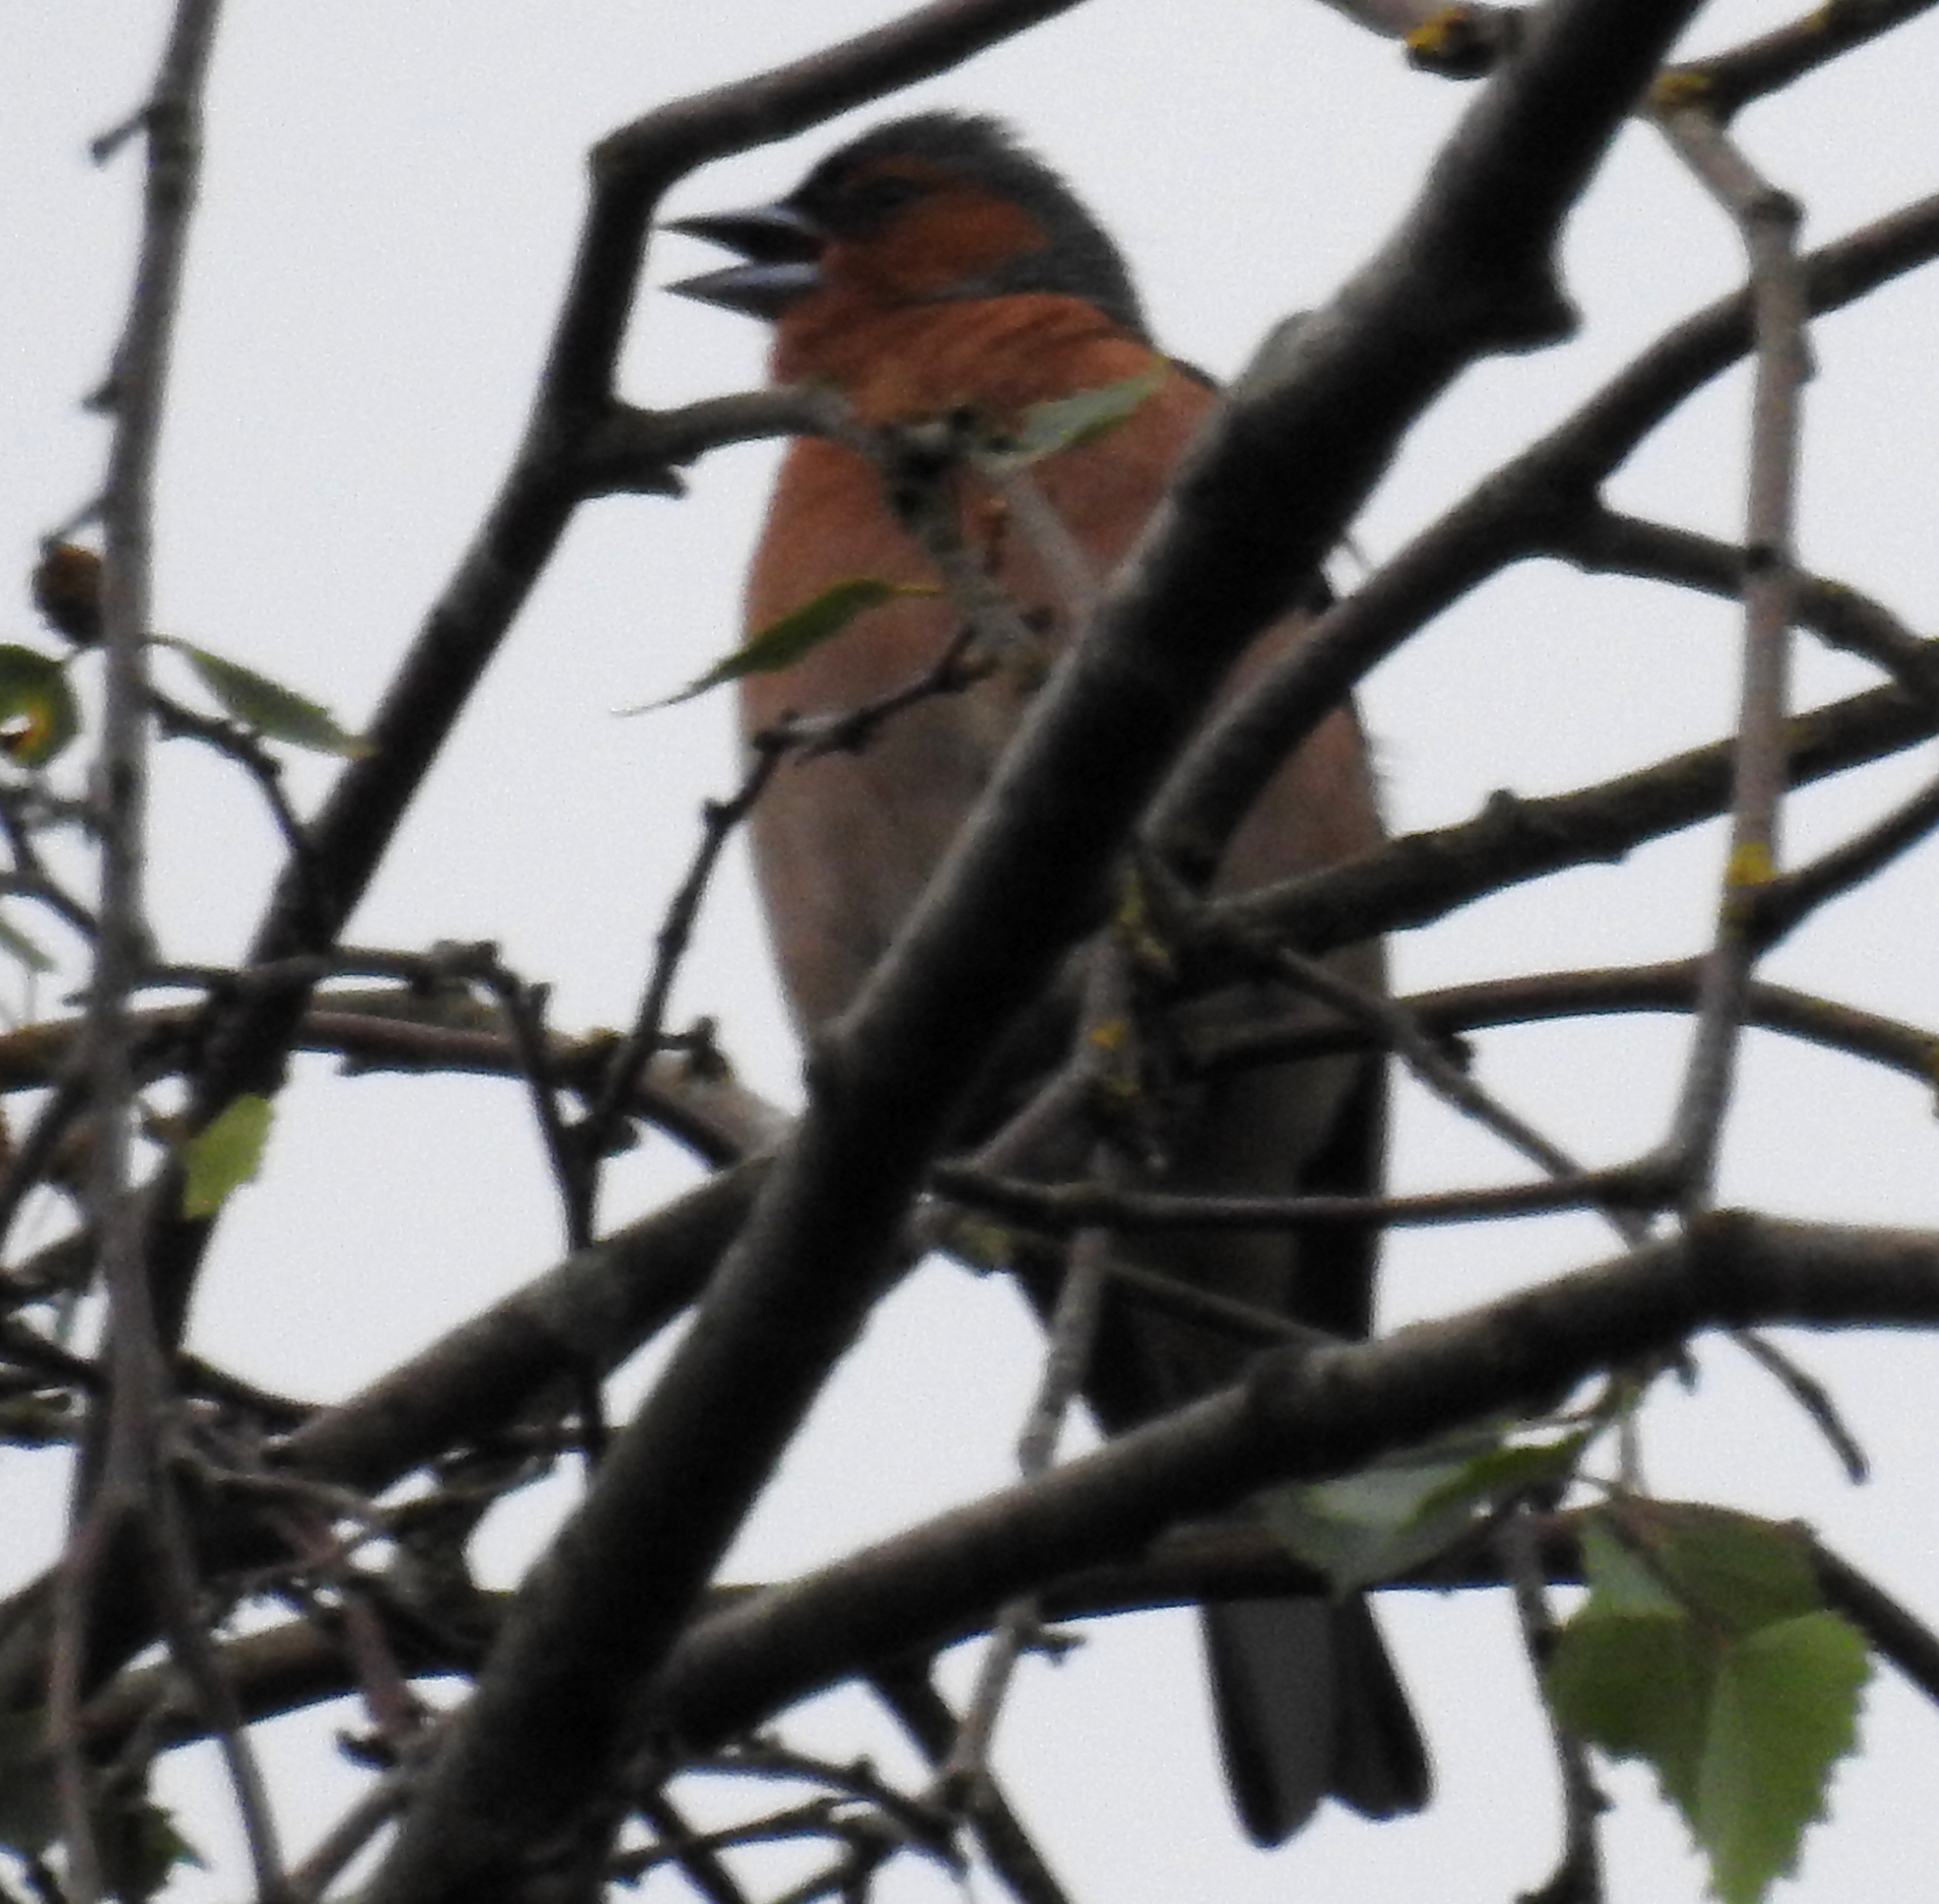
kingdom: Animalia
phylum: Chordata
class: Aves
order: Passeriformes
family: Fringillidae
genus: Fringilla
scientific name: Fringilla coelebs
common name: Common chaffinch
